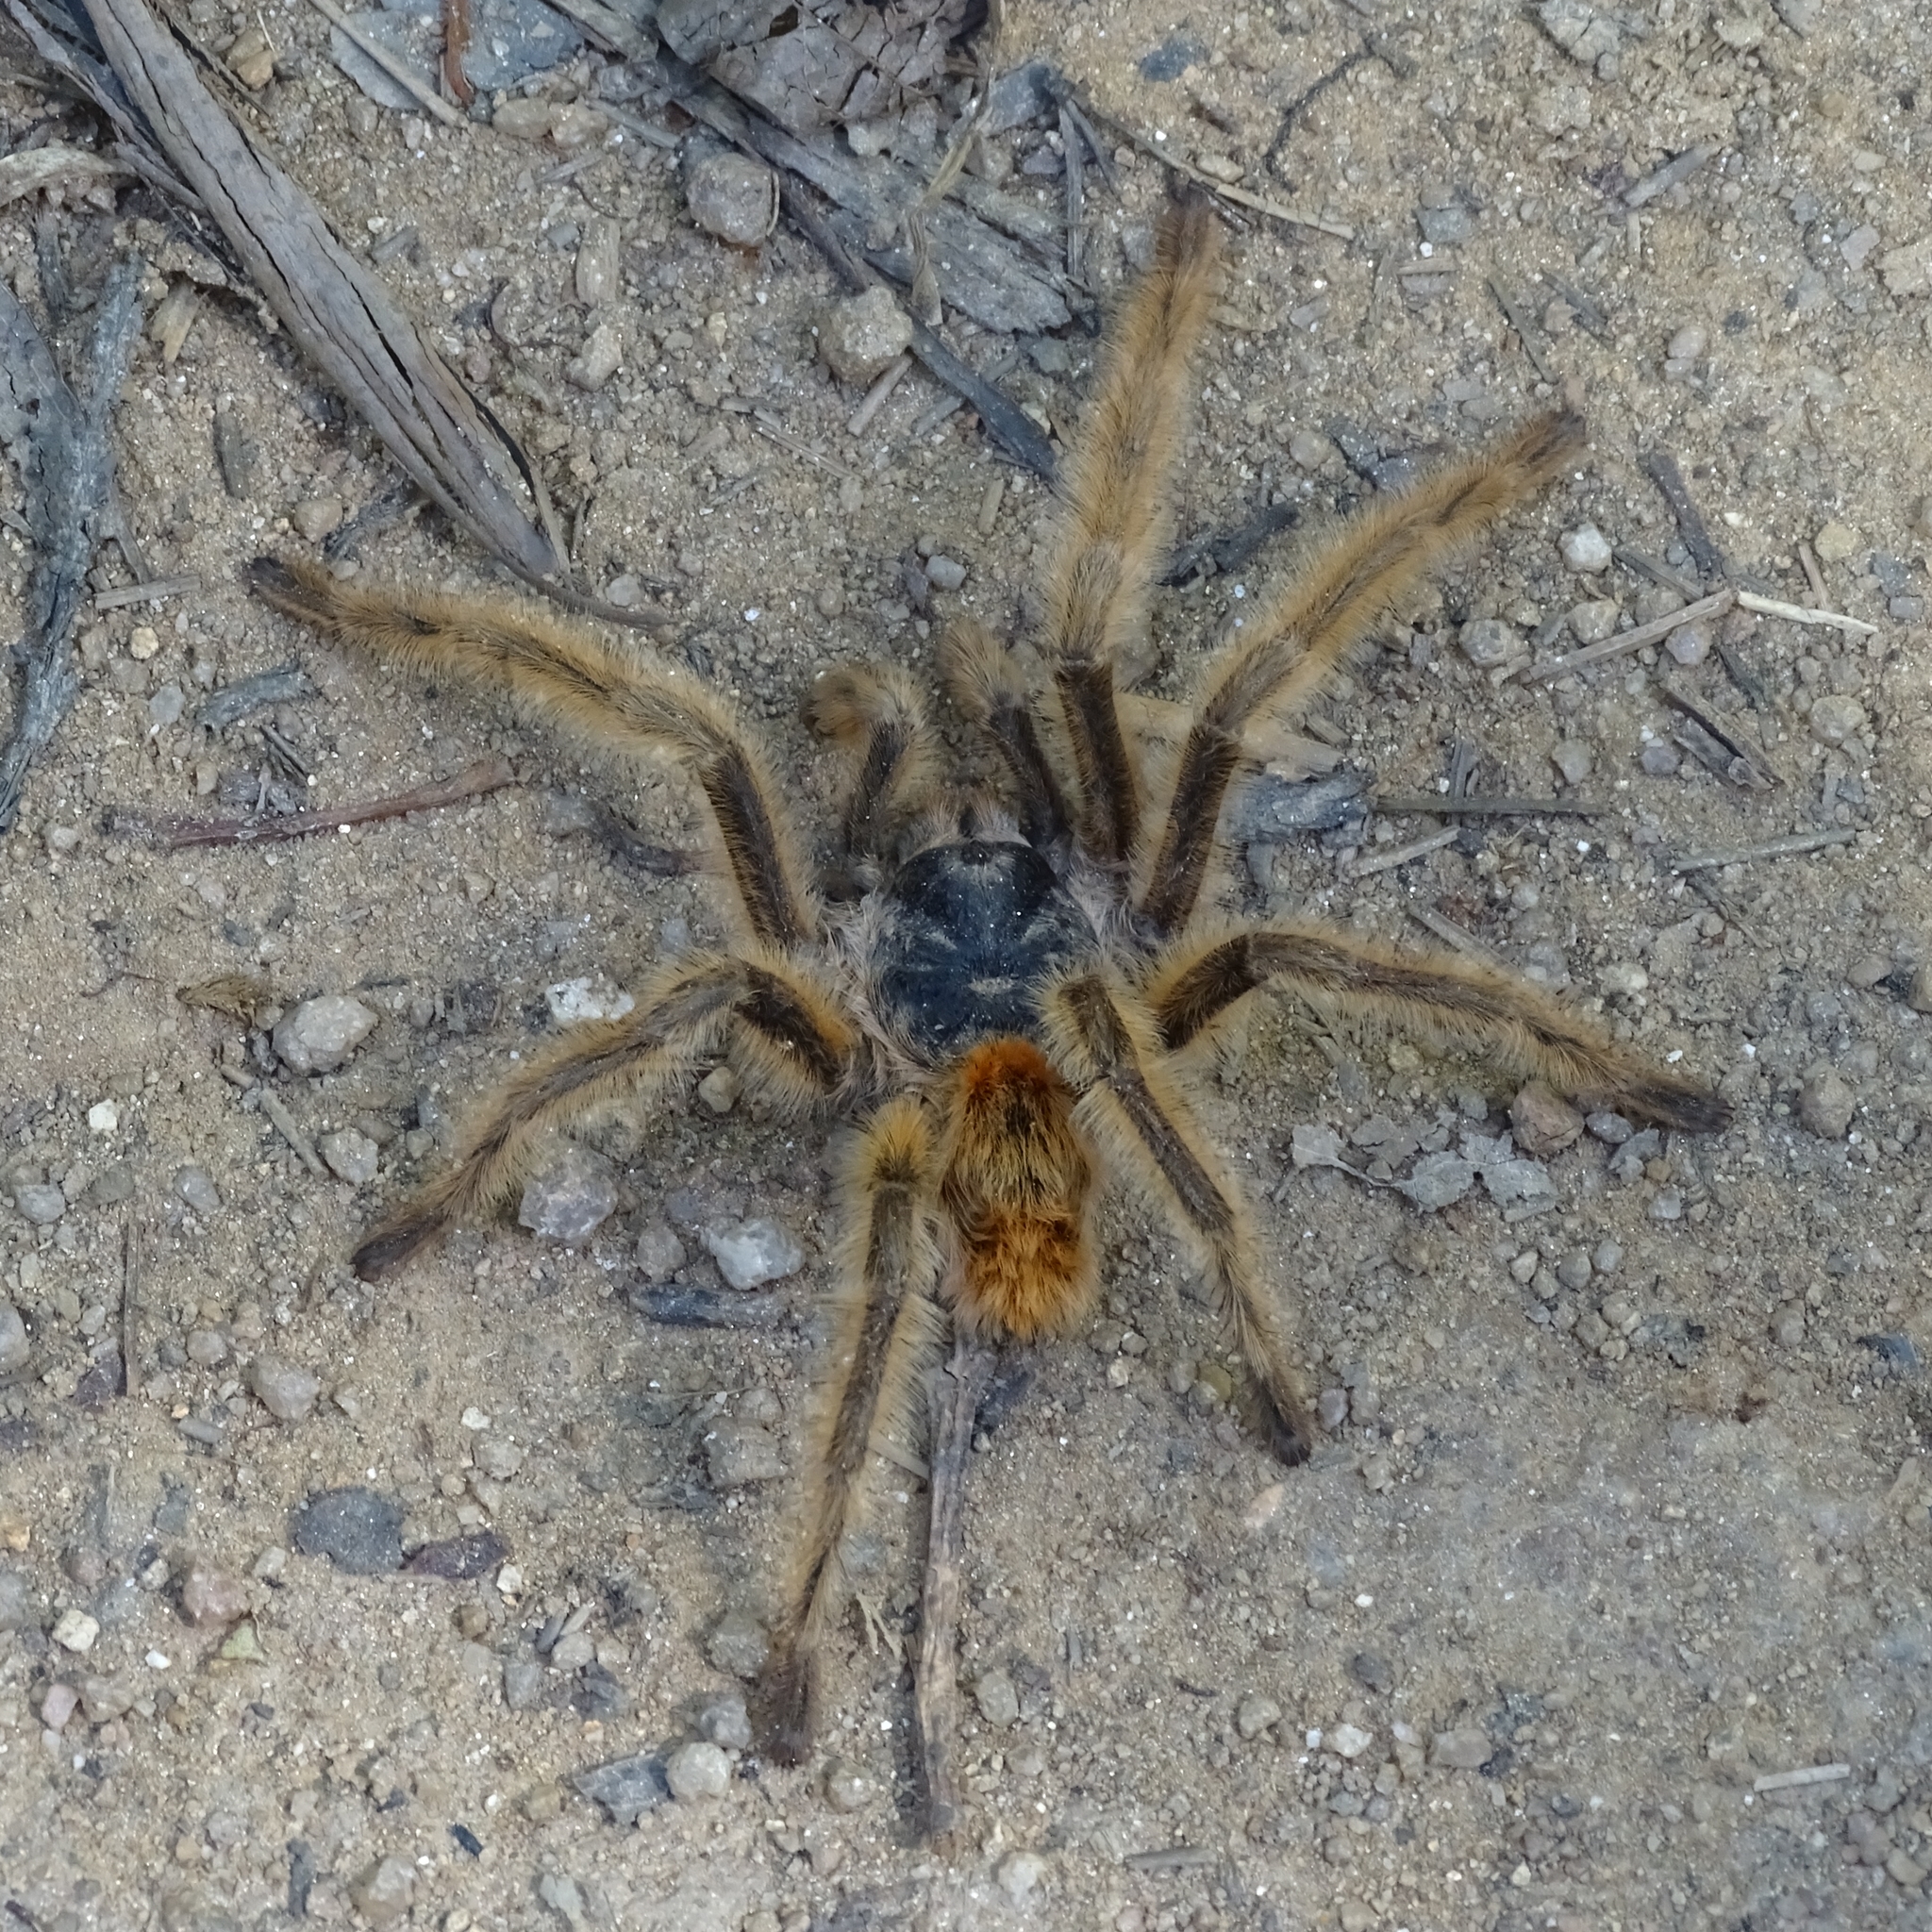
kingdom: Animalia
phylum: Arthropoda
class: Arachnida
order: Araneae
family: Theraphosidae
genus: Phrixotrichus
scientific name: Phrixotrichus vulpinus
